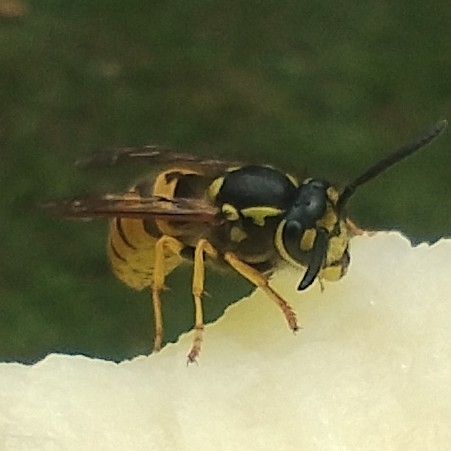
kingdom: Animalia
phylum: Arthropoda
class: Insecta
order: Hymenoptera
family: Vespidae
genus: Vespula
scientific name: Vespula germanica
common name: German wasp
